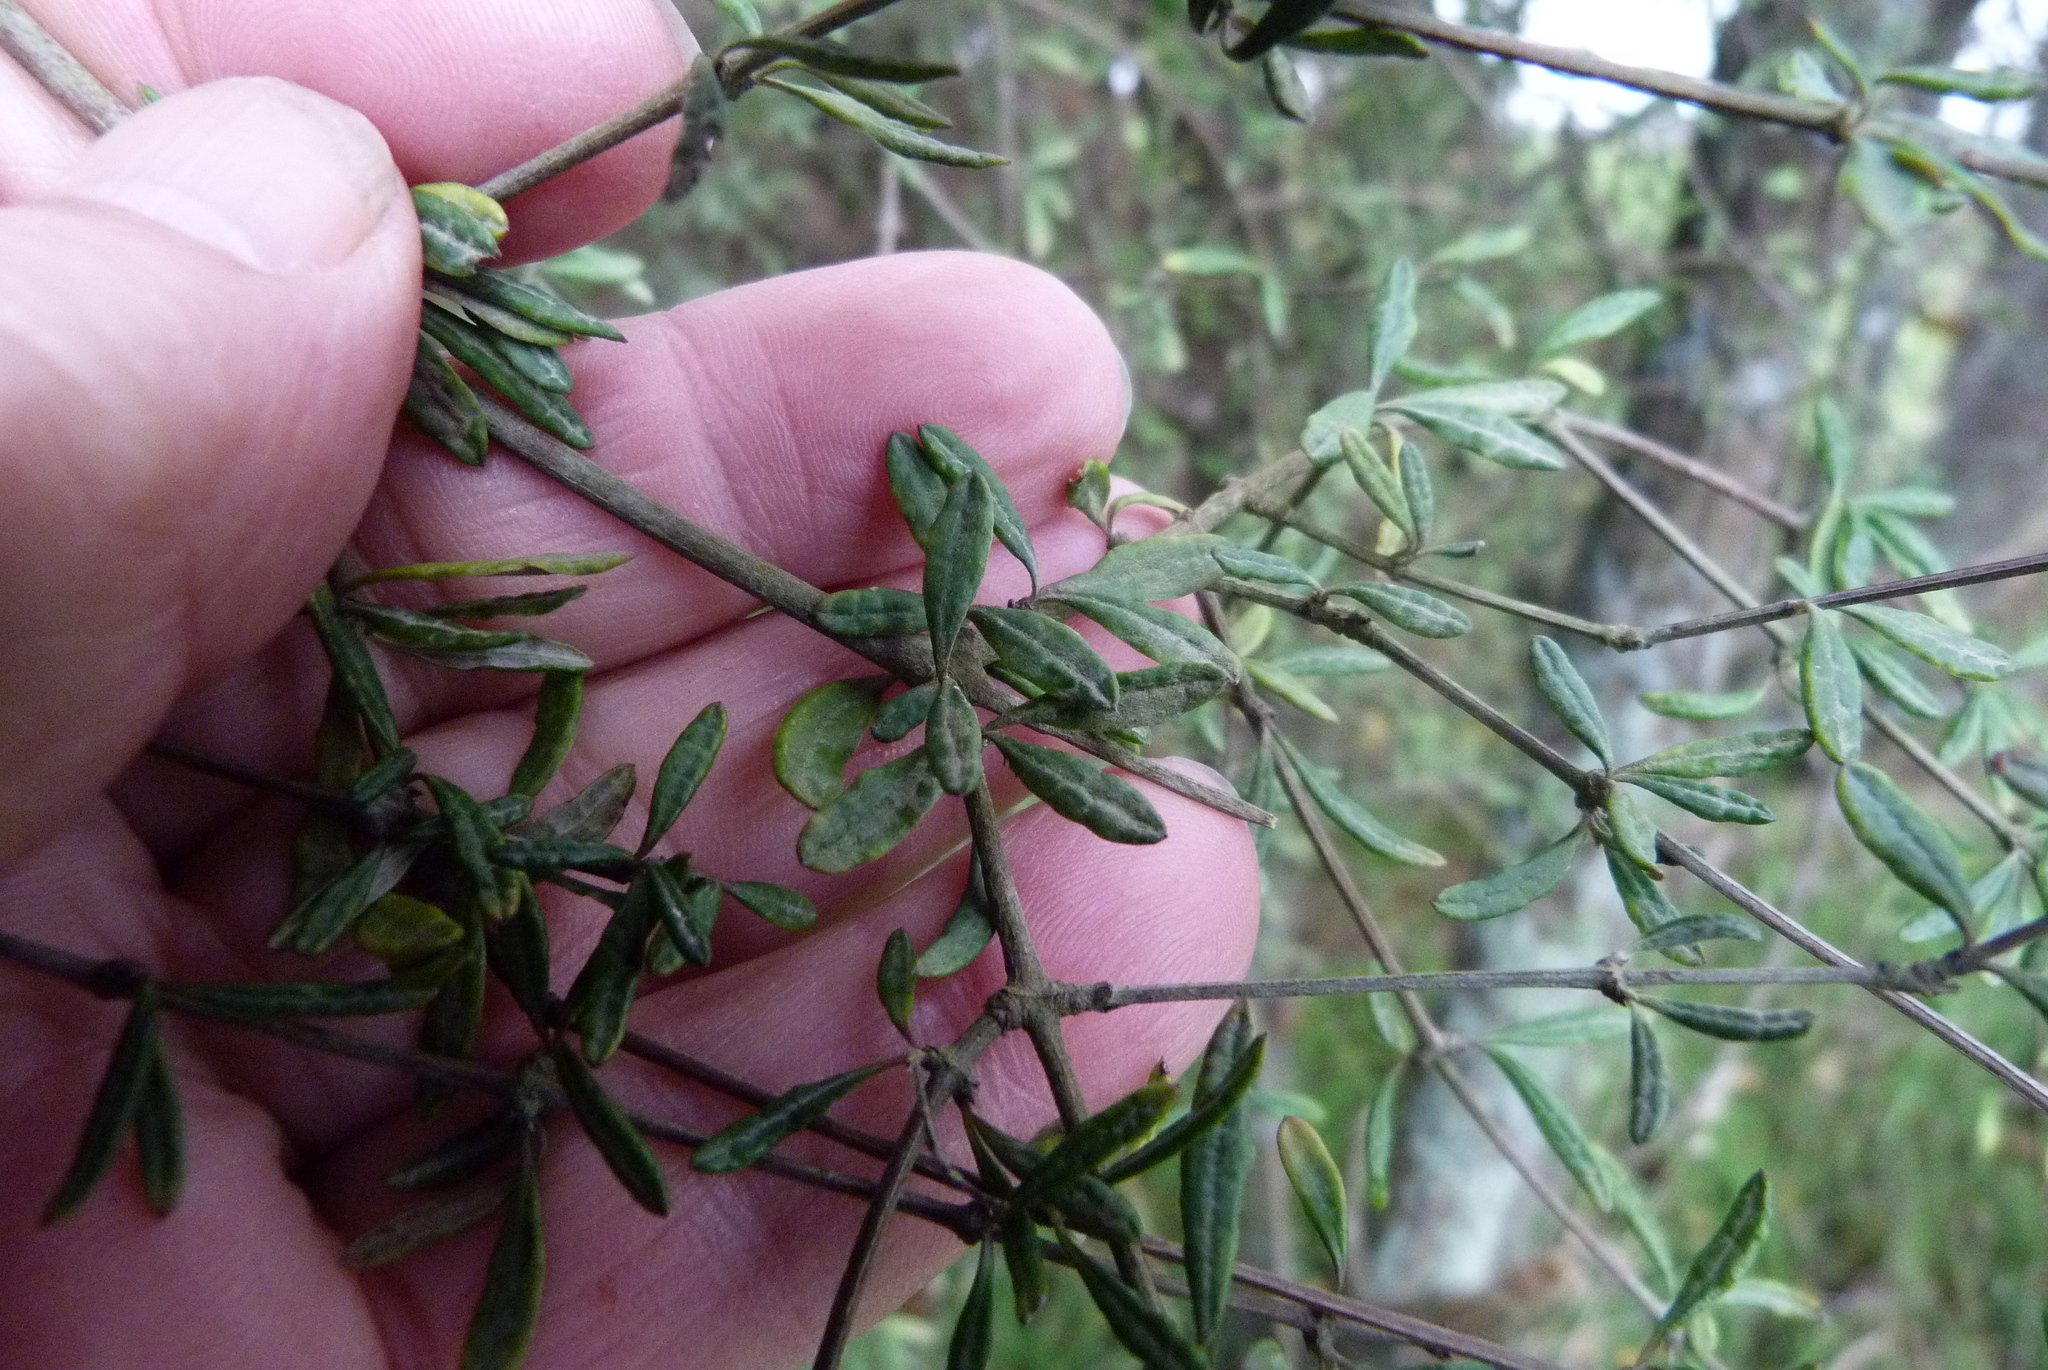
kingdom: Plantae
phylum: Tracheophyta
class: Magnoliopsida
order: Asterales
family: Asteraceae
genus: Olearia
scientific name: Olearia bullata
